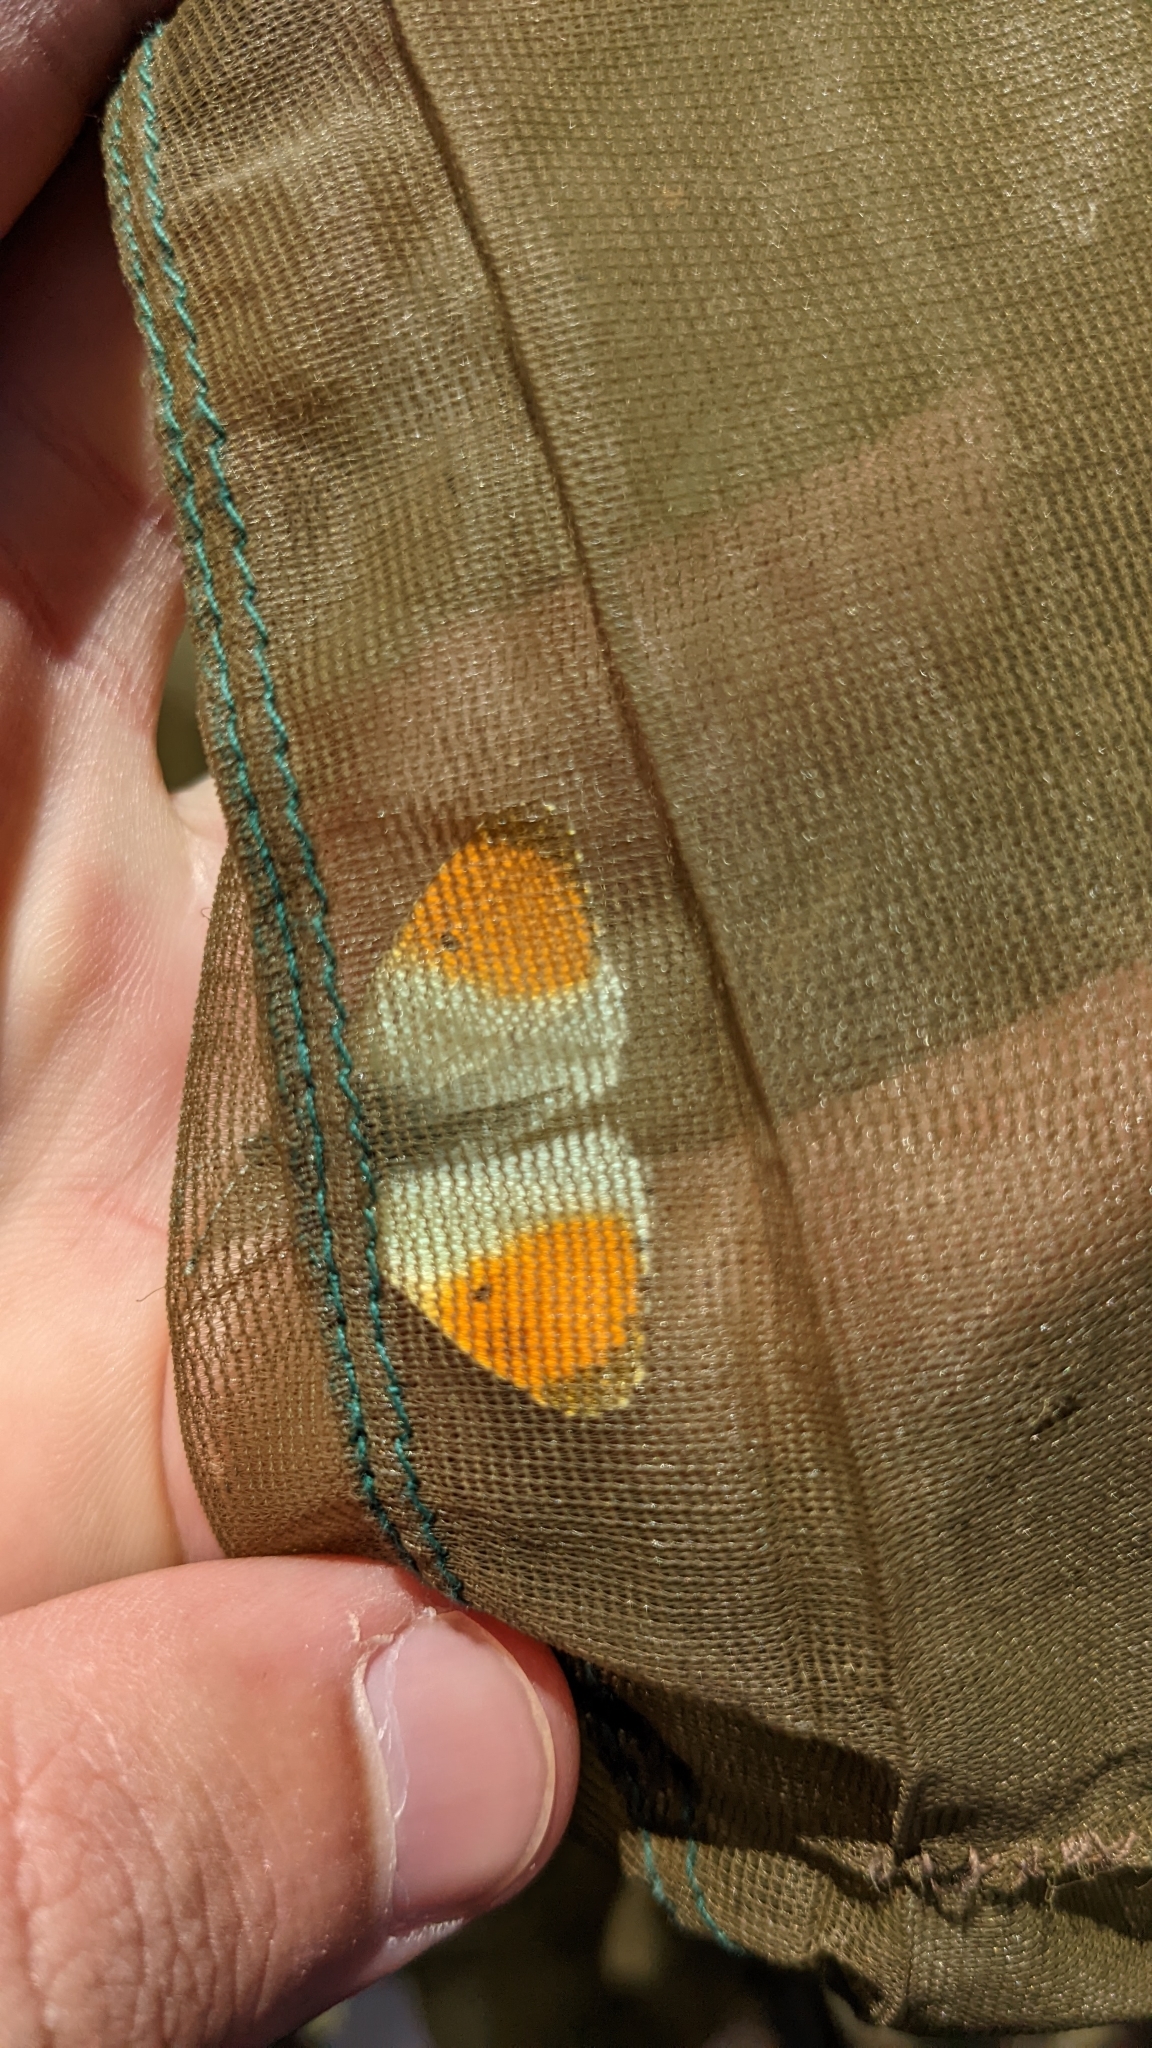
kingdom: Animalia
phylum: Arthropoda
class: Insecta
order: Lepidoptera
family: Pieridae
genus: Anthocharis
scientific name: Anthocharis cardamines
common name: Orange-tip
